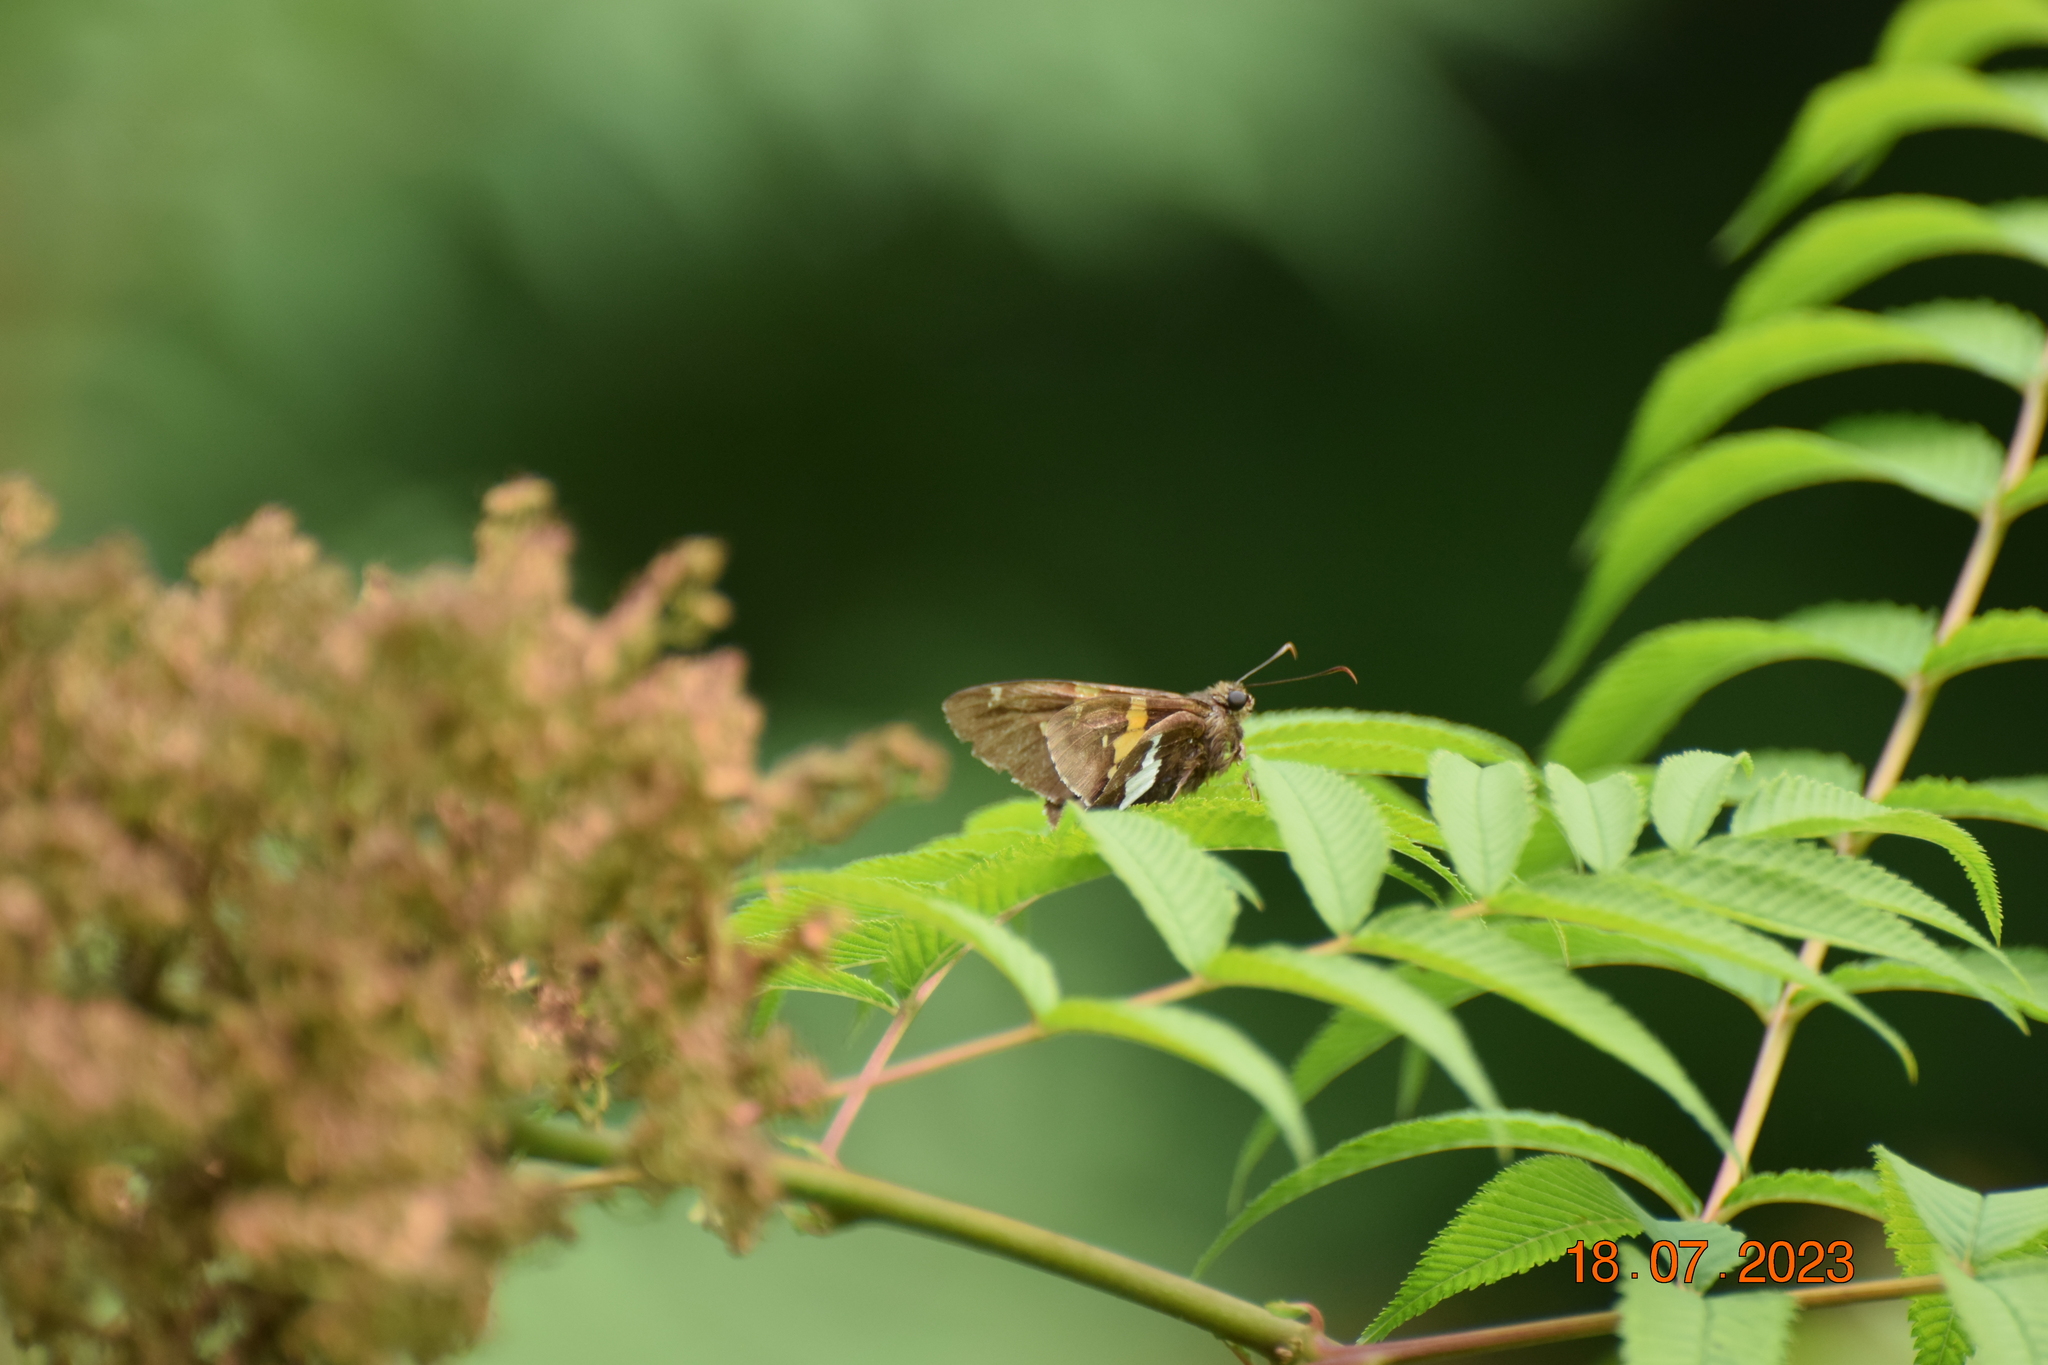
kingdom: Animalia
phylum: Arthropoda
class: Insecta
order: Lepidoptera
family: Hesperiidae
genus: Epargyreus
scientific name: Epargyreus clarus
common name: Silver-spotted skipper
